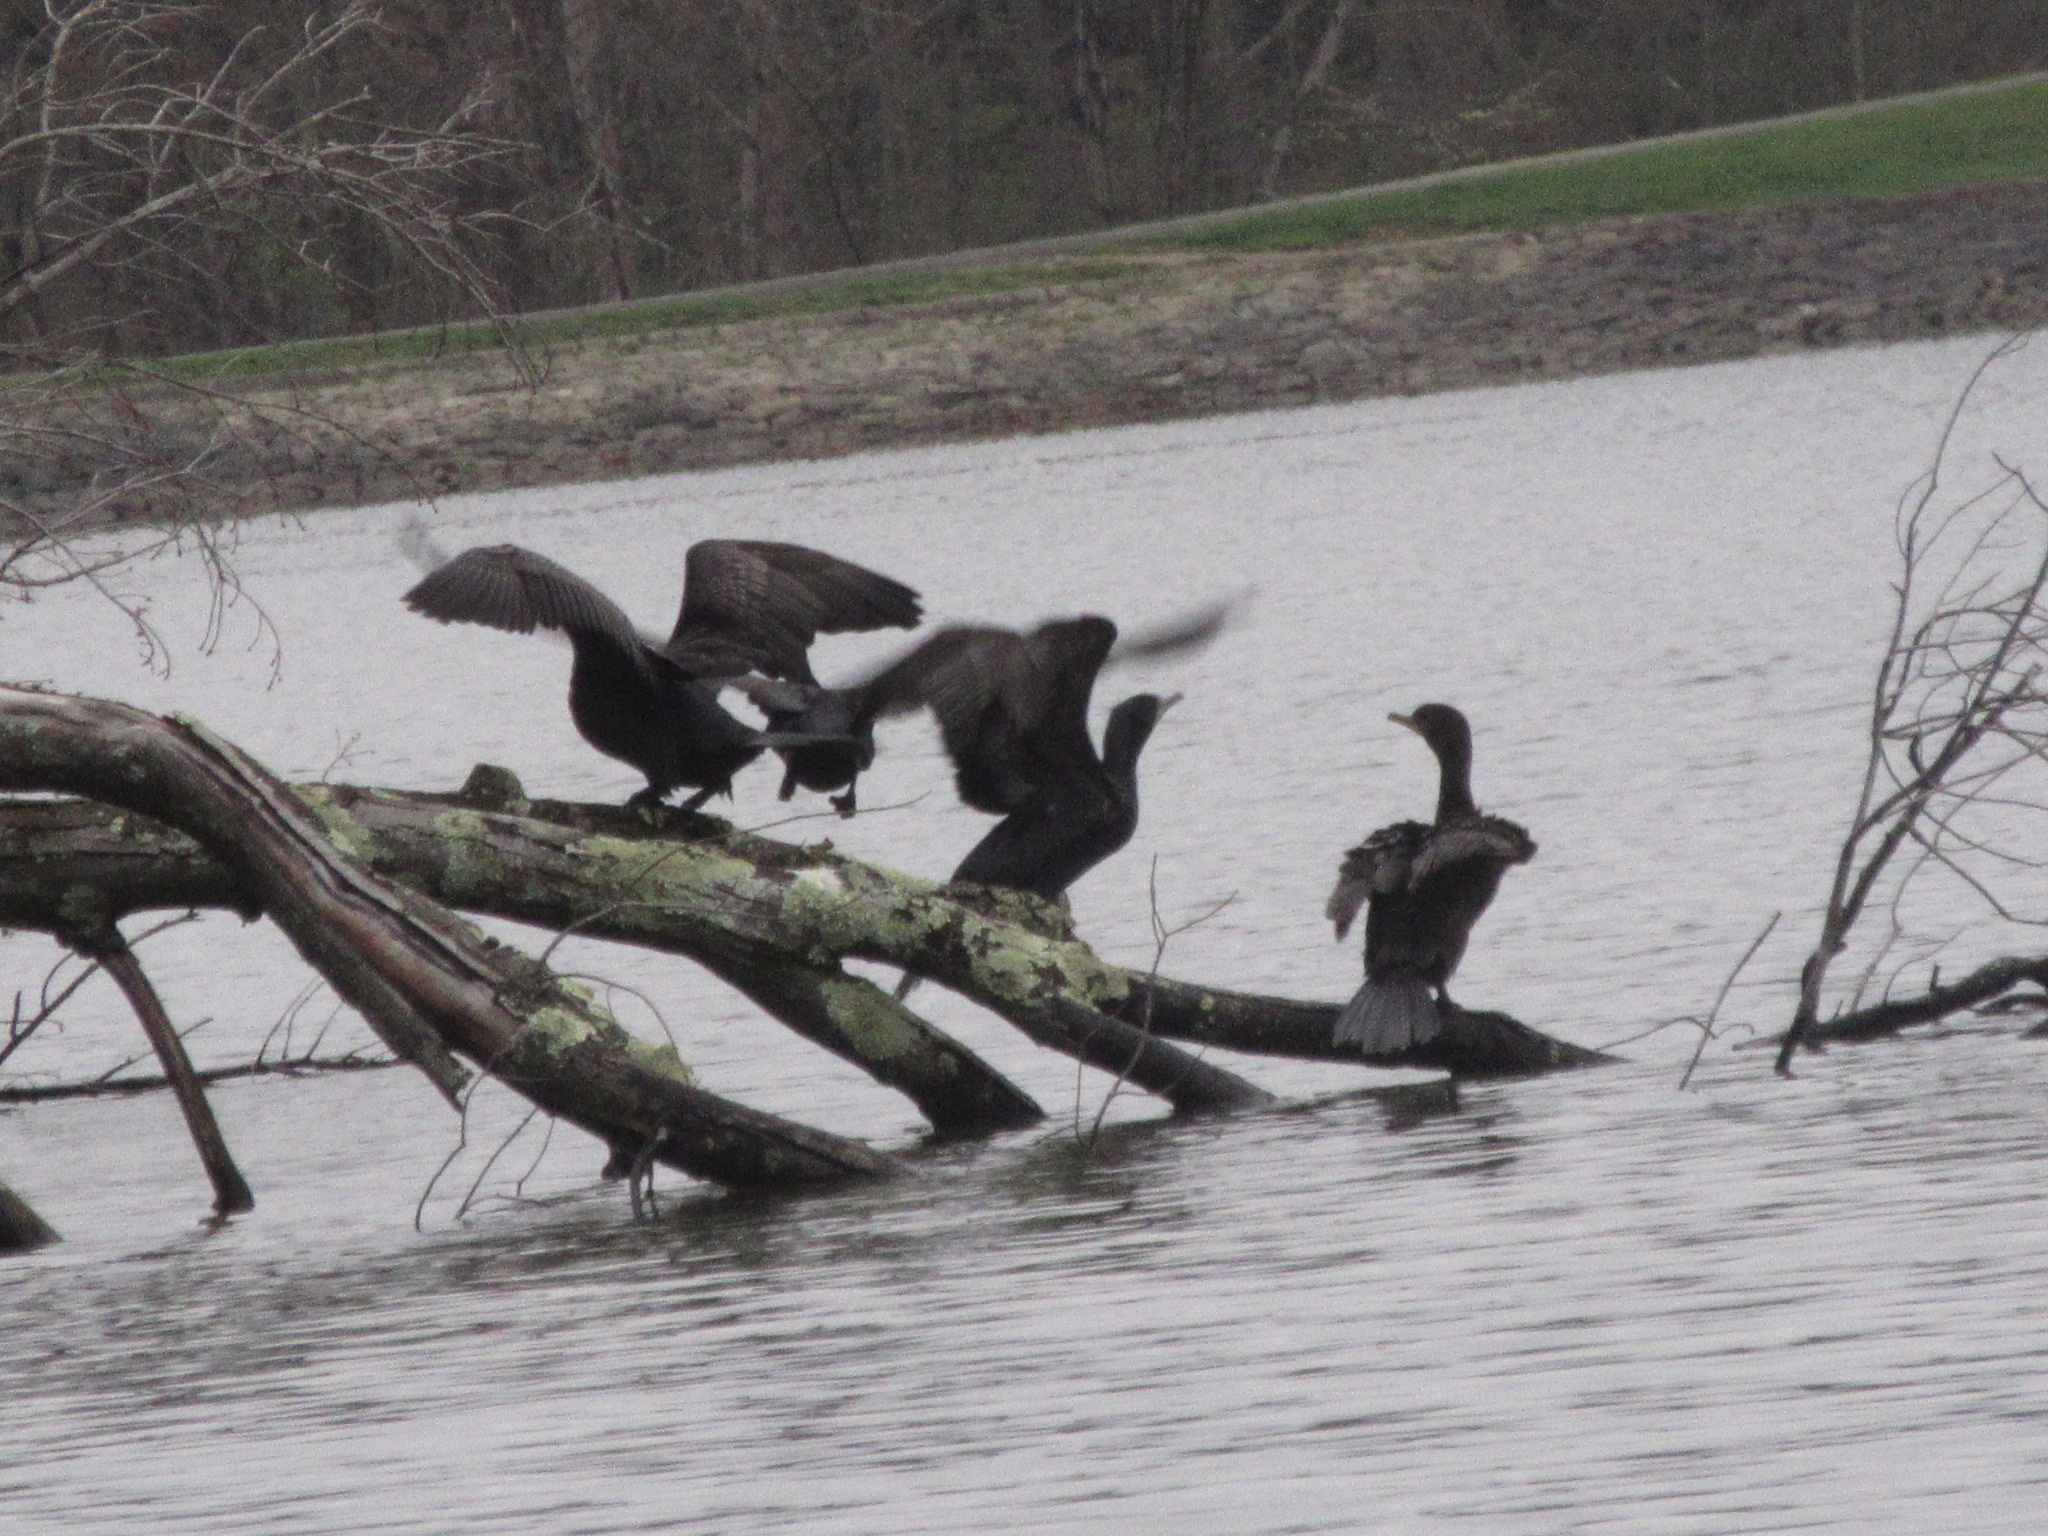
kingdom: Animalia
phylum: Chordata
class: Aves
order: Suliformes
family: Phalacrocoracidae
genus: Phalacrocorax
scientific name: Phalacrocorax auritus
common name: Double-crested cormorant
